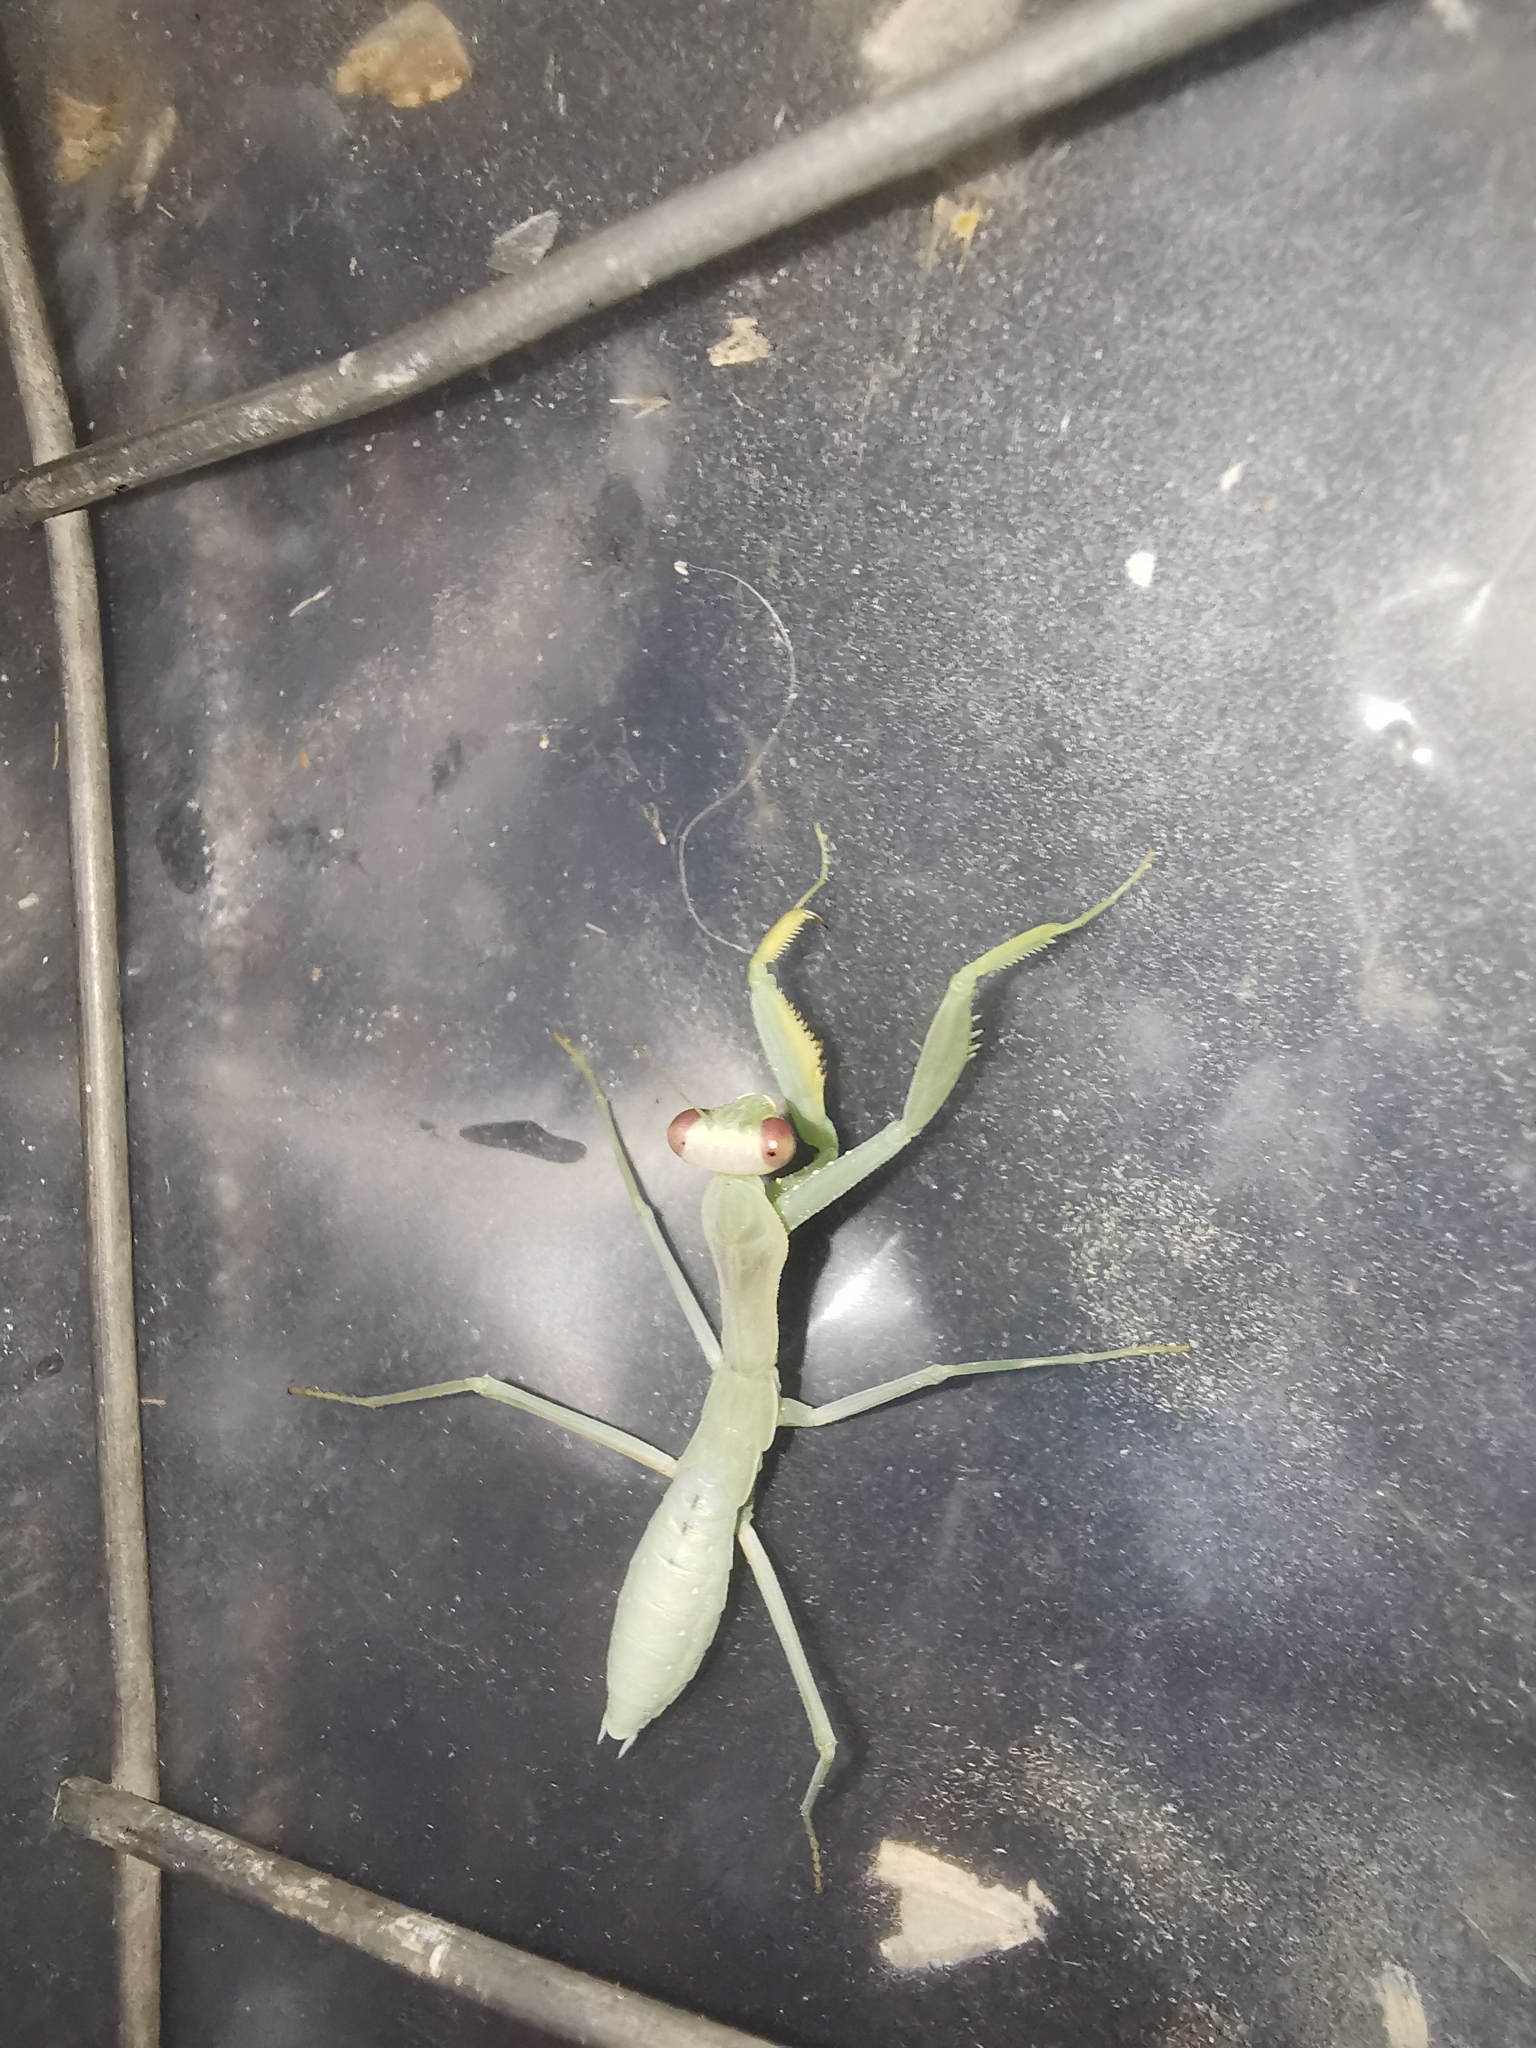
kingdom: Animalia
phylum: Arthropoda
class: Insecta
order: Mantodea
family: Mantidae
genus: Hierodula
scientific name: Hierodula transcaucasica
